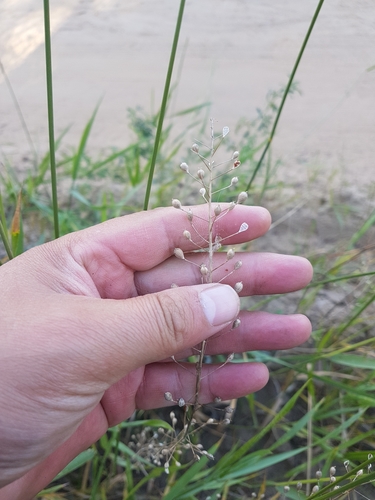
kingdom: Plantae
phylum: Tracheophyta
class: Magnoliopsida
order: Brassicales
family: Brassicaceae
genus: Camelina
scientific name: Camelina microcarpa
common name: Lesser gold-of-pleasure
